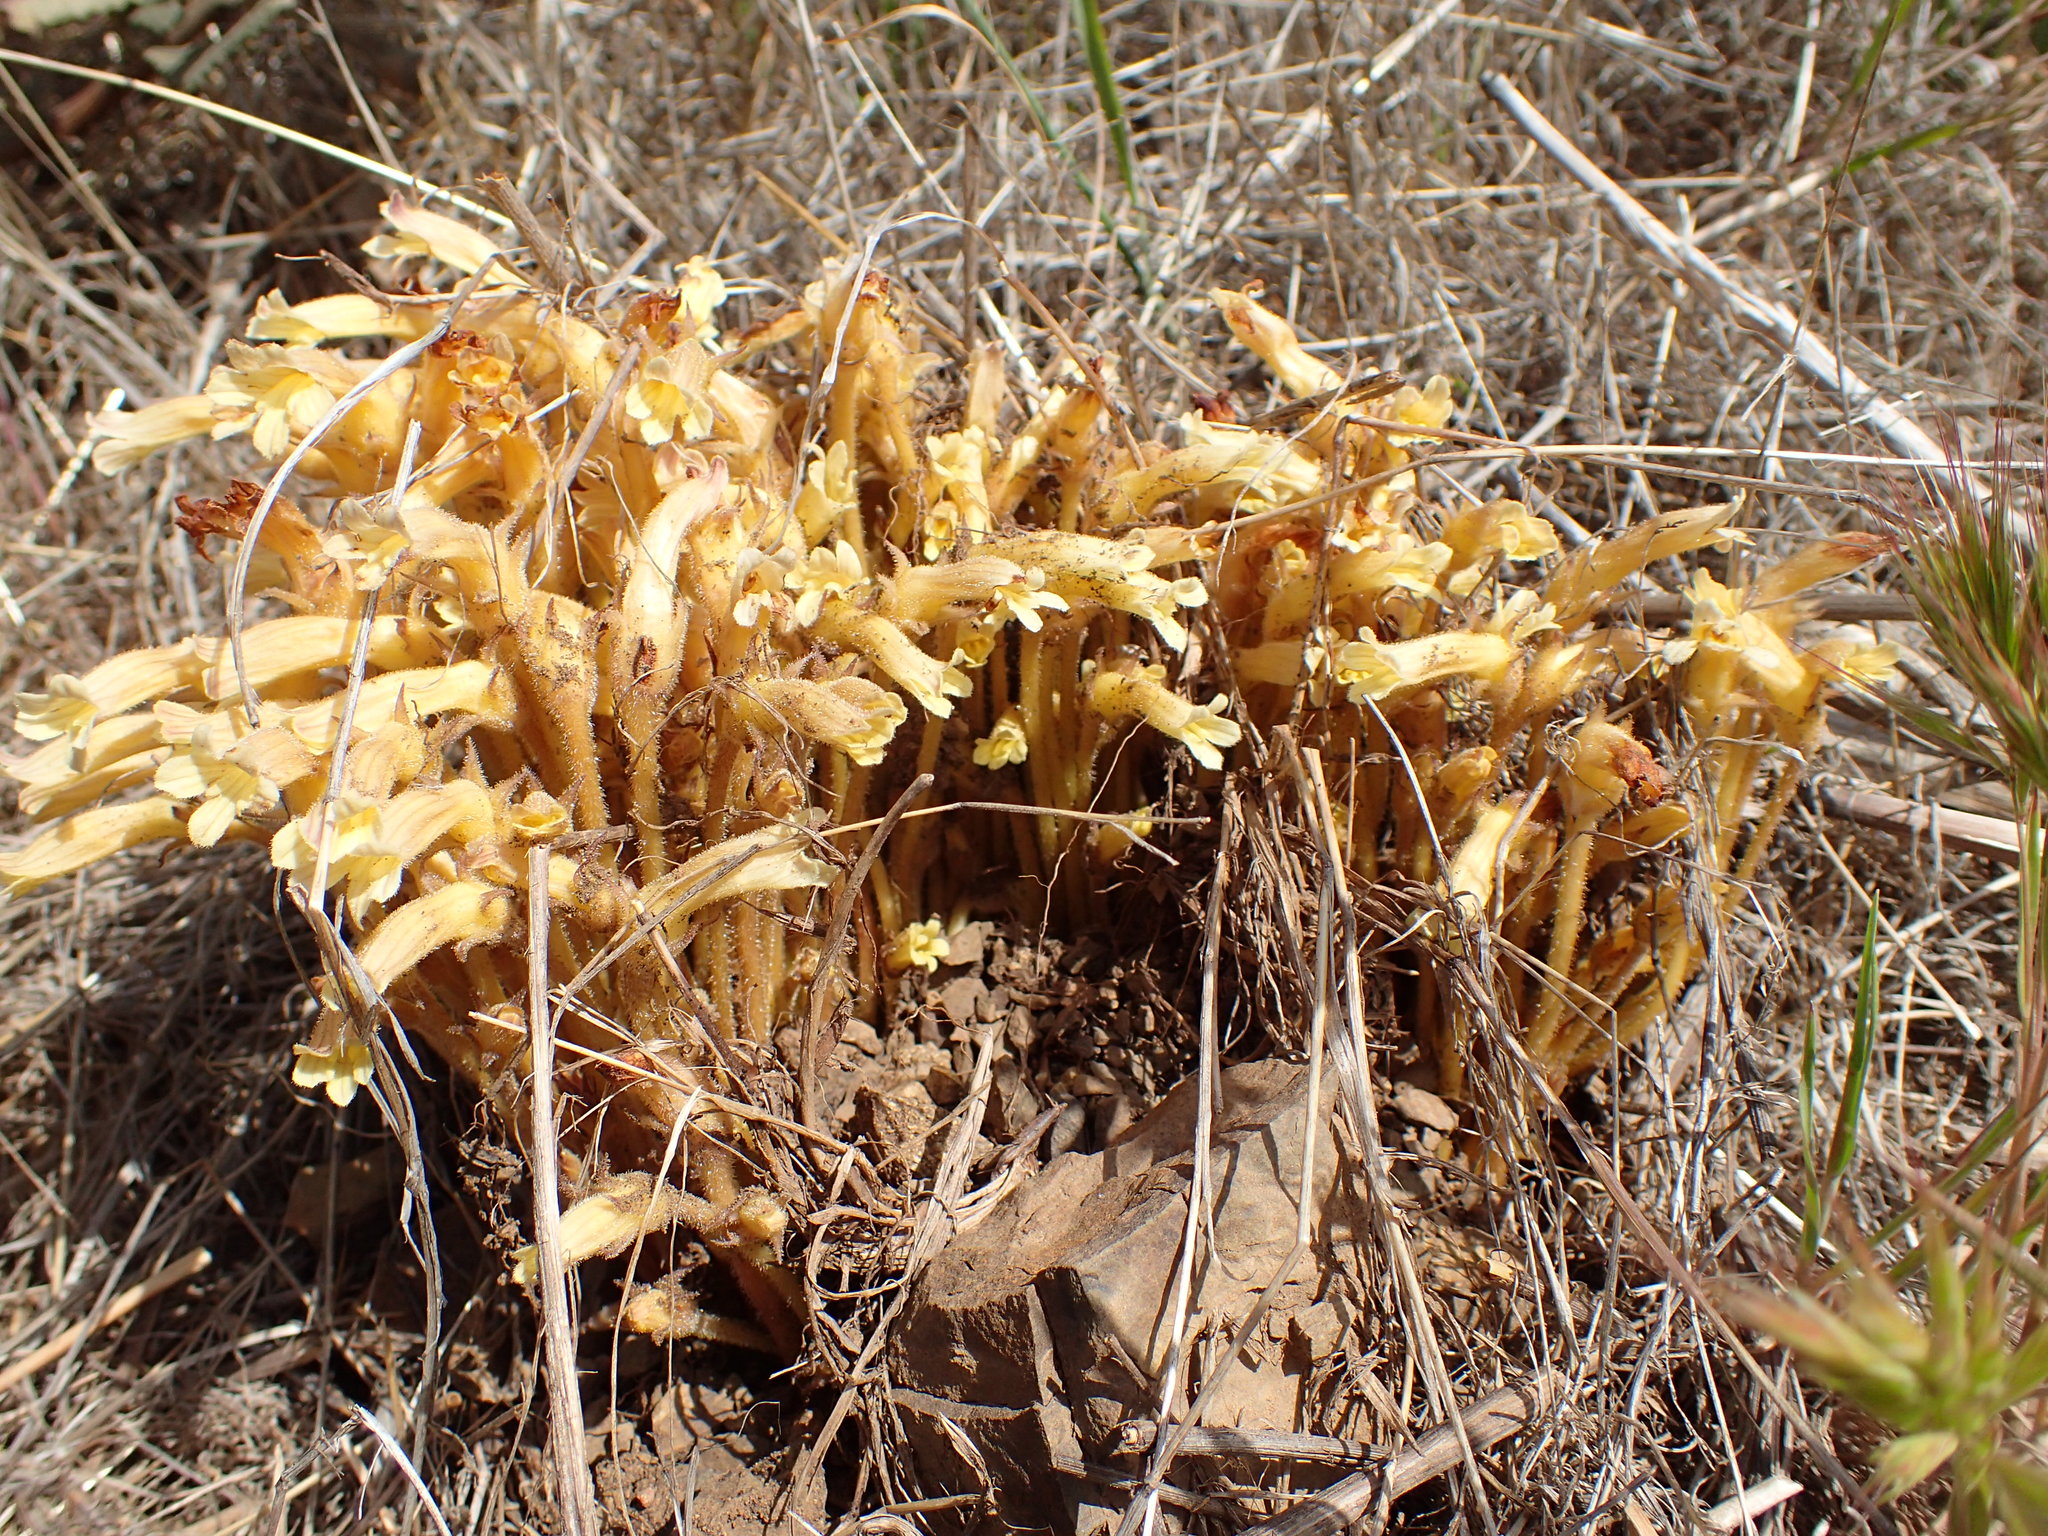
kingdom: Plantae
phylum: Tracheophyta
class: Magnoliopsida
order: Lamiales
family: Orobanchaceae
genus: Aphyllon
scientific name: Aphyllon franciscanum
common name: San francisco broomrape
